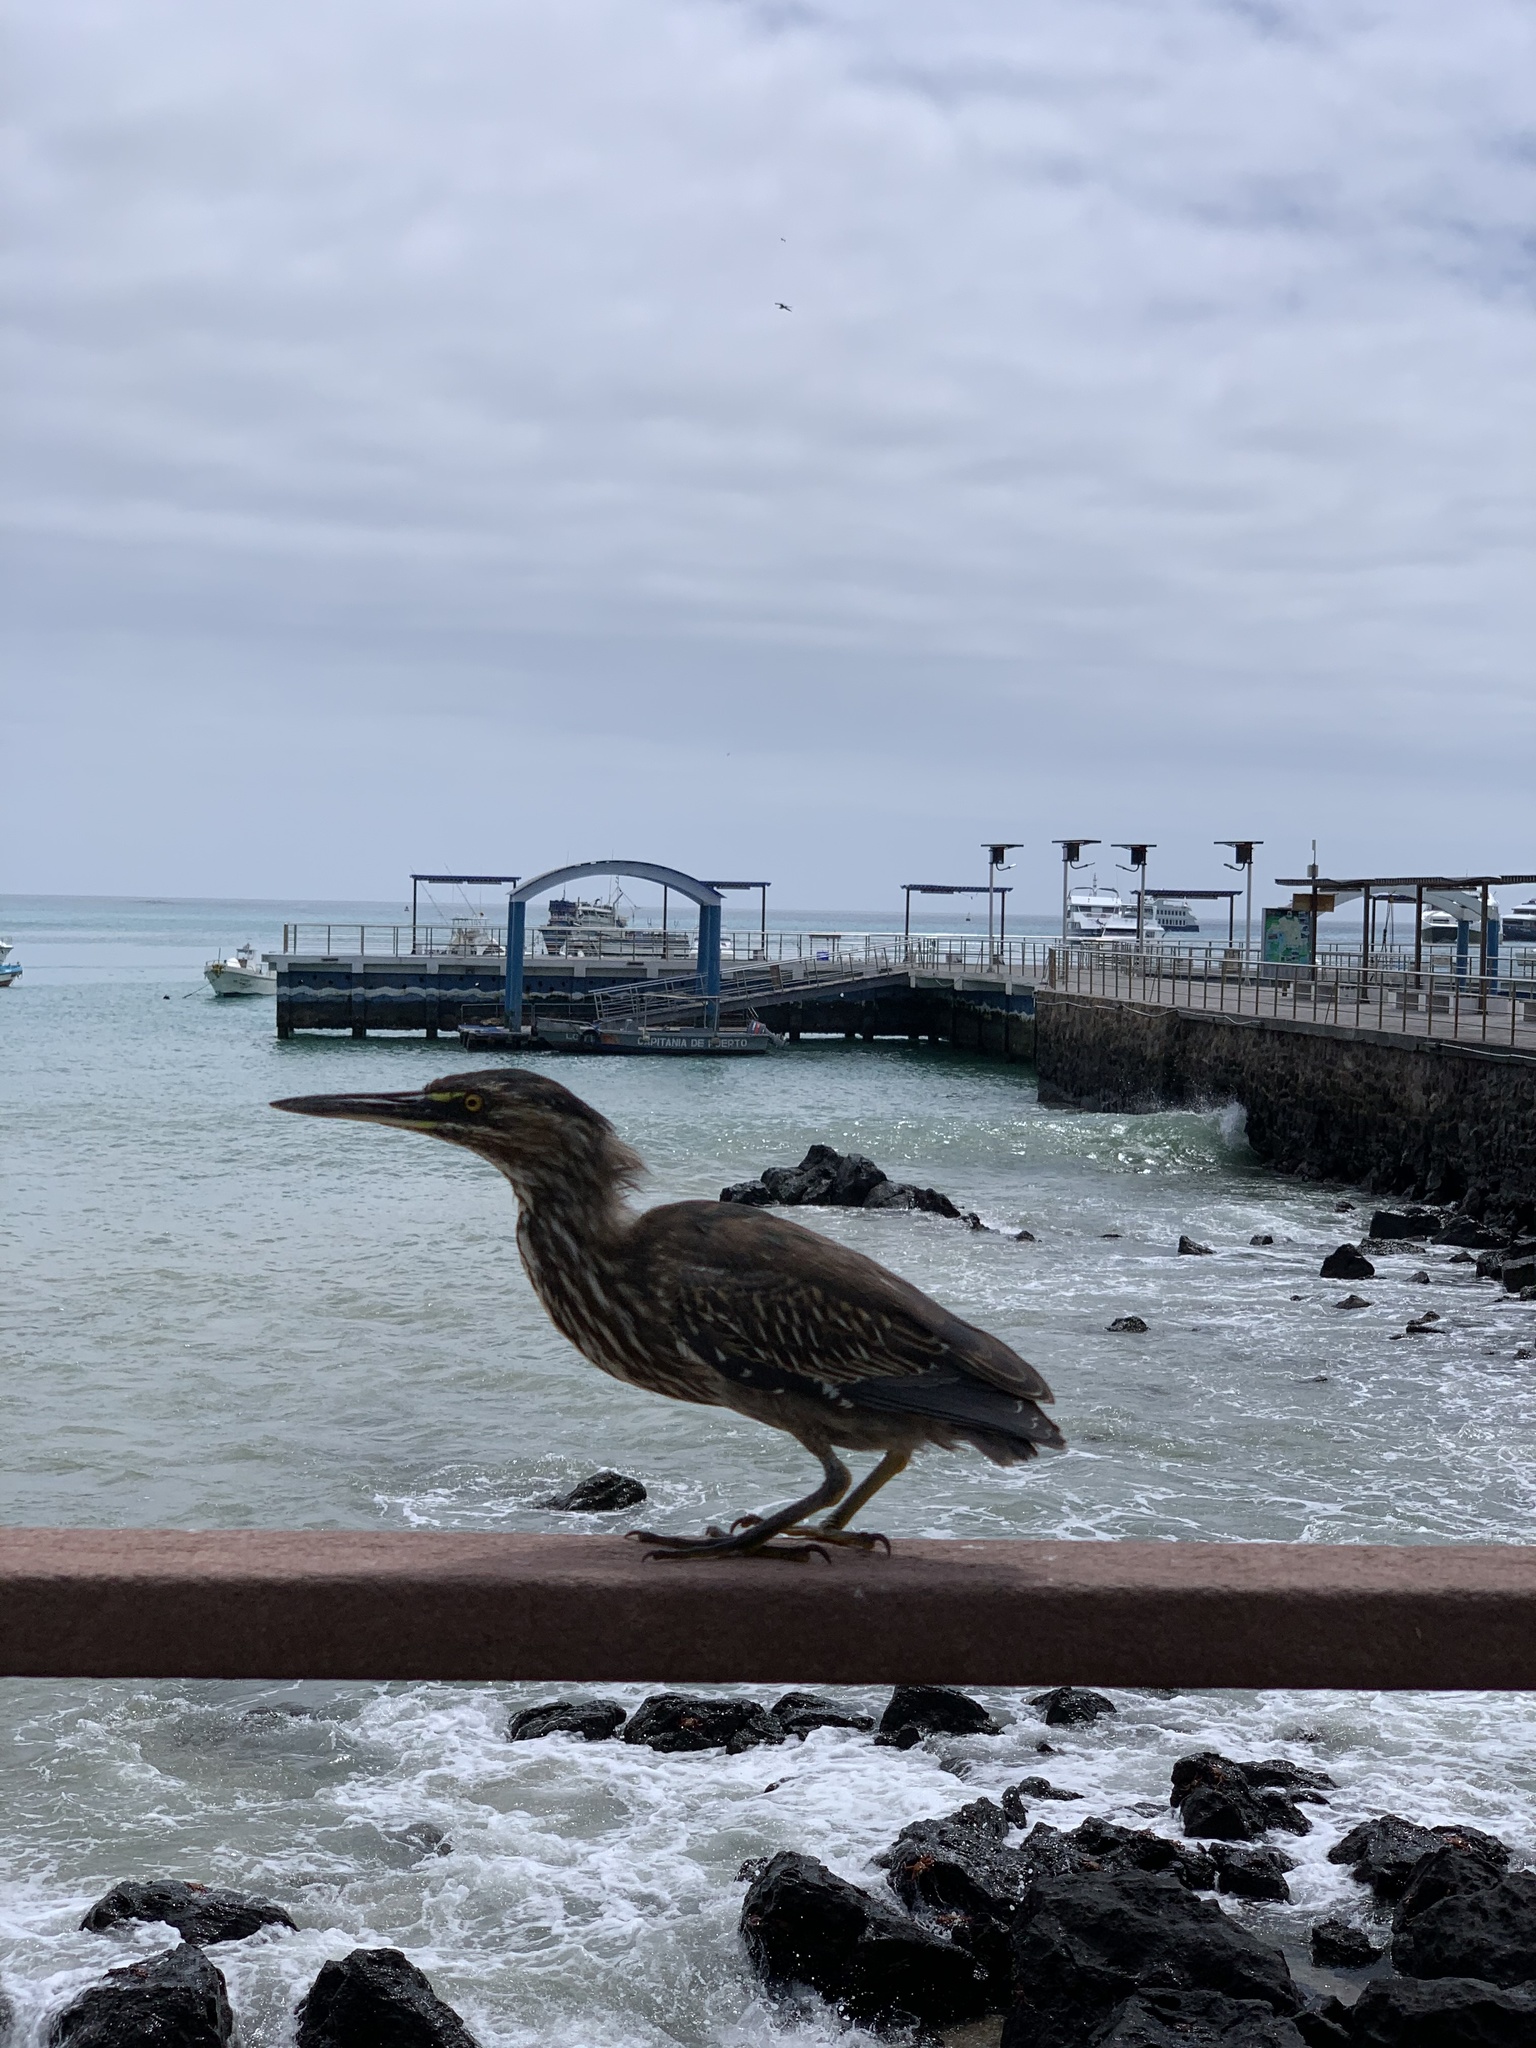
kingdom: Animalia
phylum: Chordata
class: Aves
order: Pelecaniformes
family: Ardeidae
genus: Butorides
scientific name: Butorides striata
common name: Striated heron
